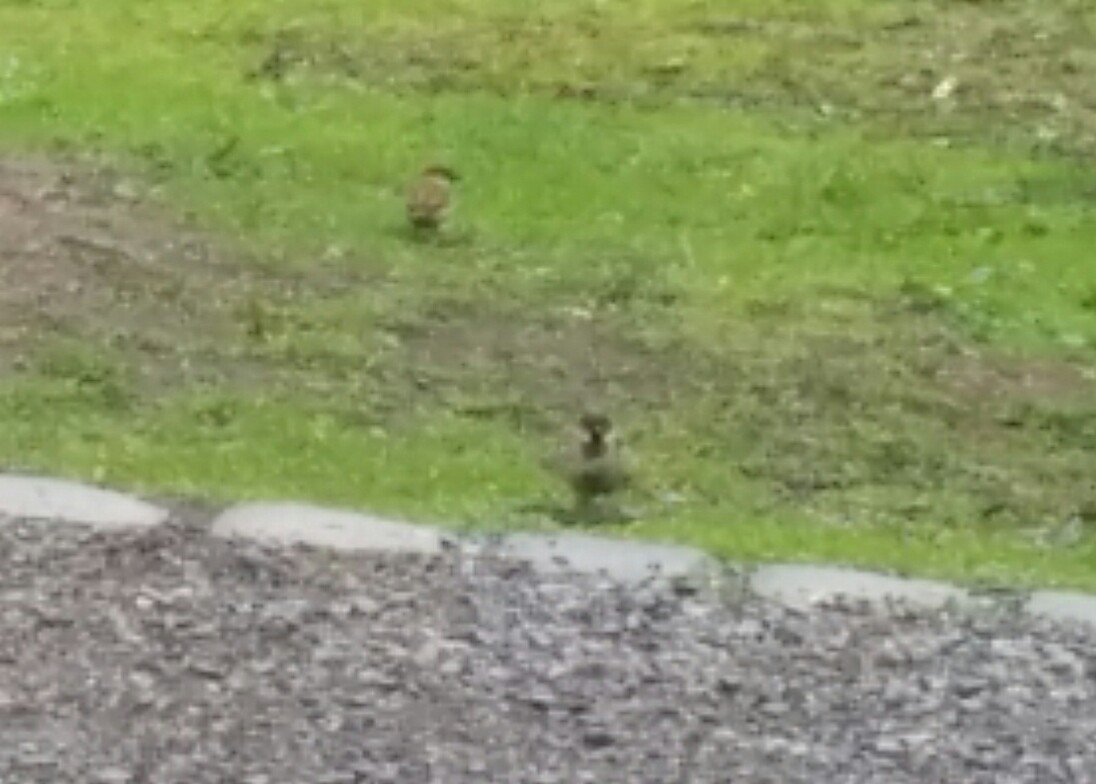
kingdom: Animalia
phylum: Chordata
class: Aves
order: Passeriformes
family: Passeridae
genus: Passer
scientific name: Passer domesticus
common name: House sparrow
